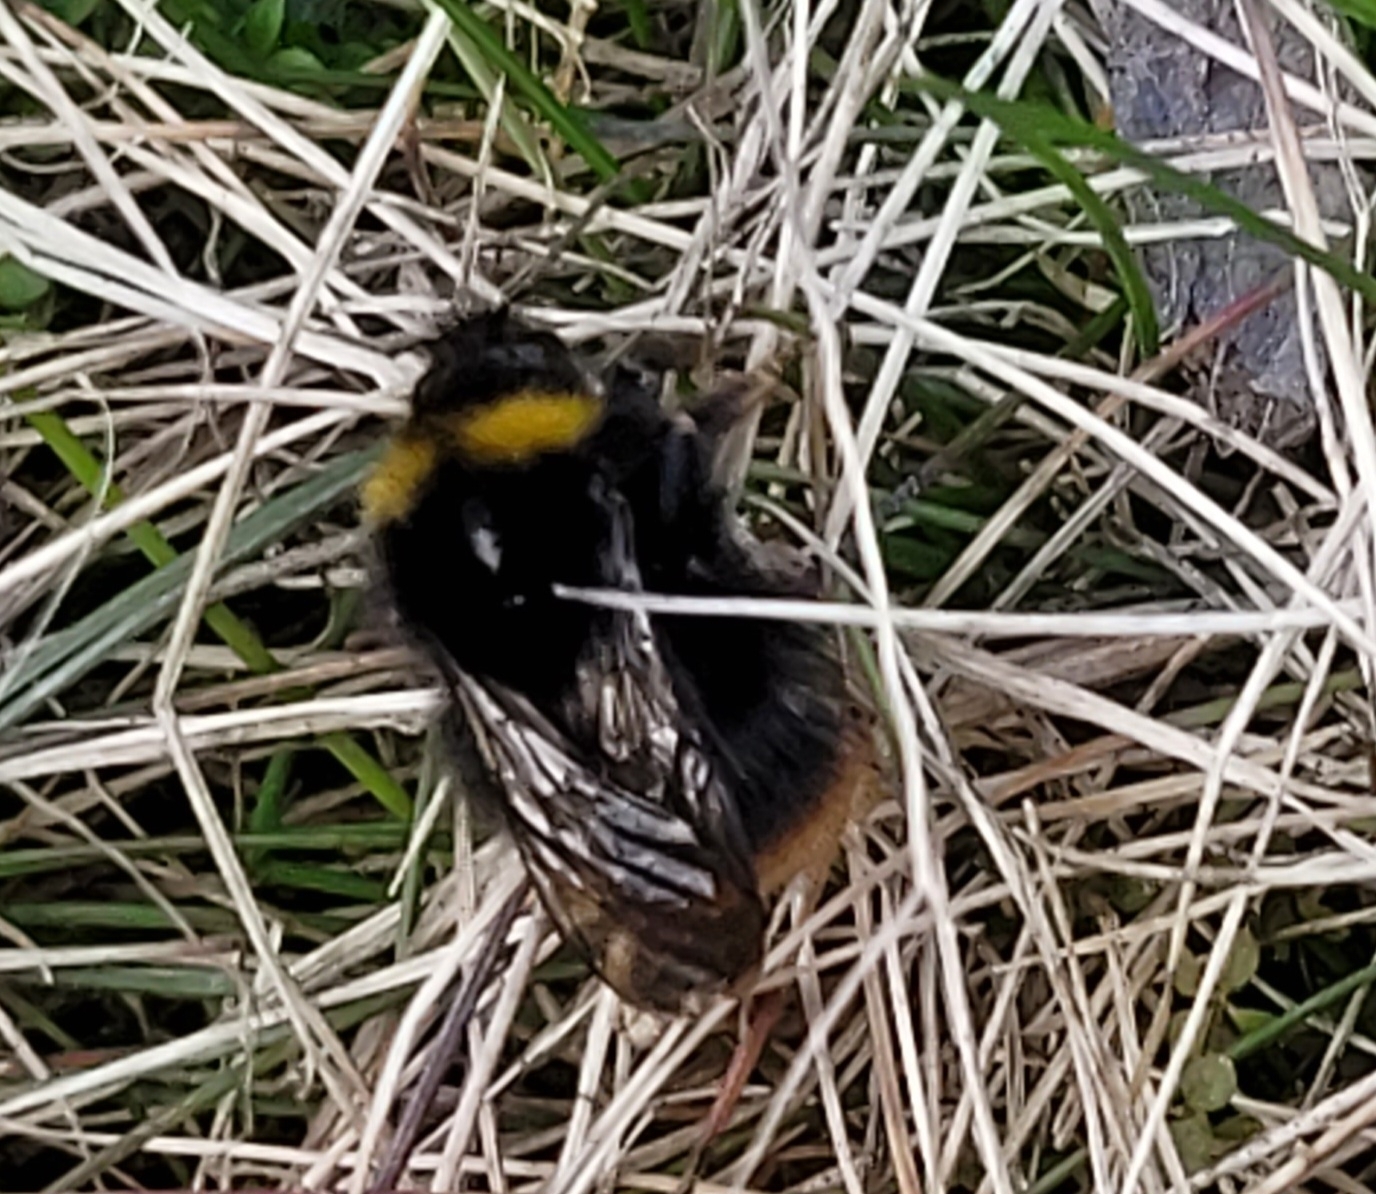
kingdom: Animalia
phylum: Arthropoda
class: Insecta
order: Hymenoptera
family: Apidae
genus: Bombus
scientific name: Bombus pratorum
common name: Early humble-bee
